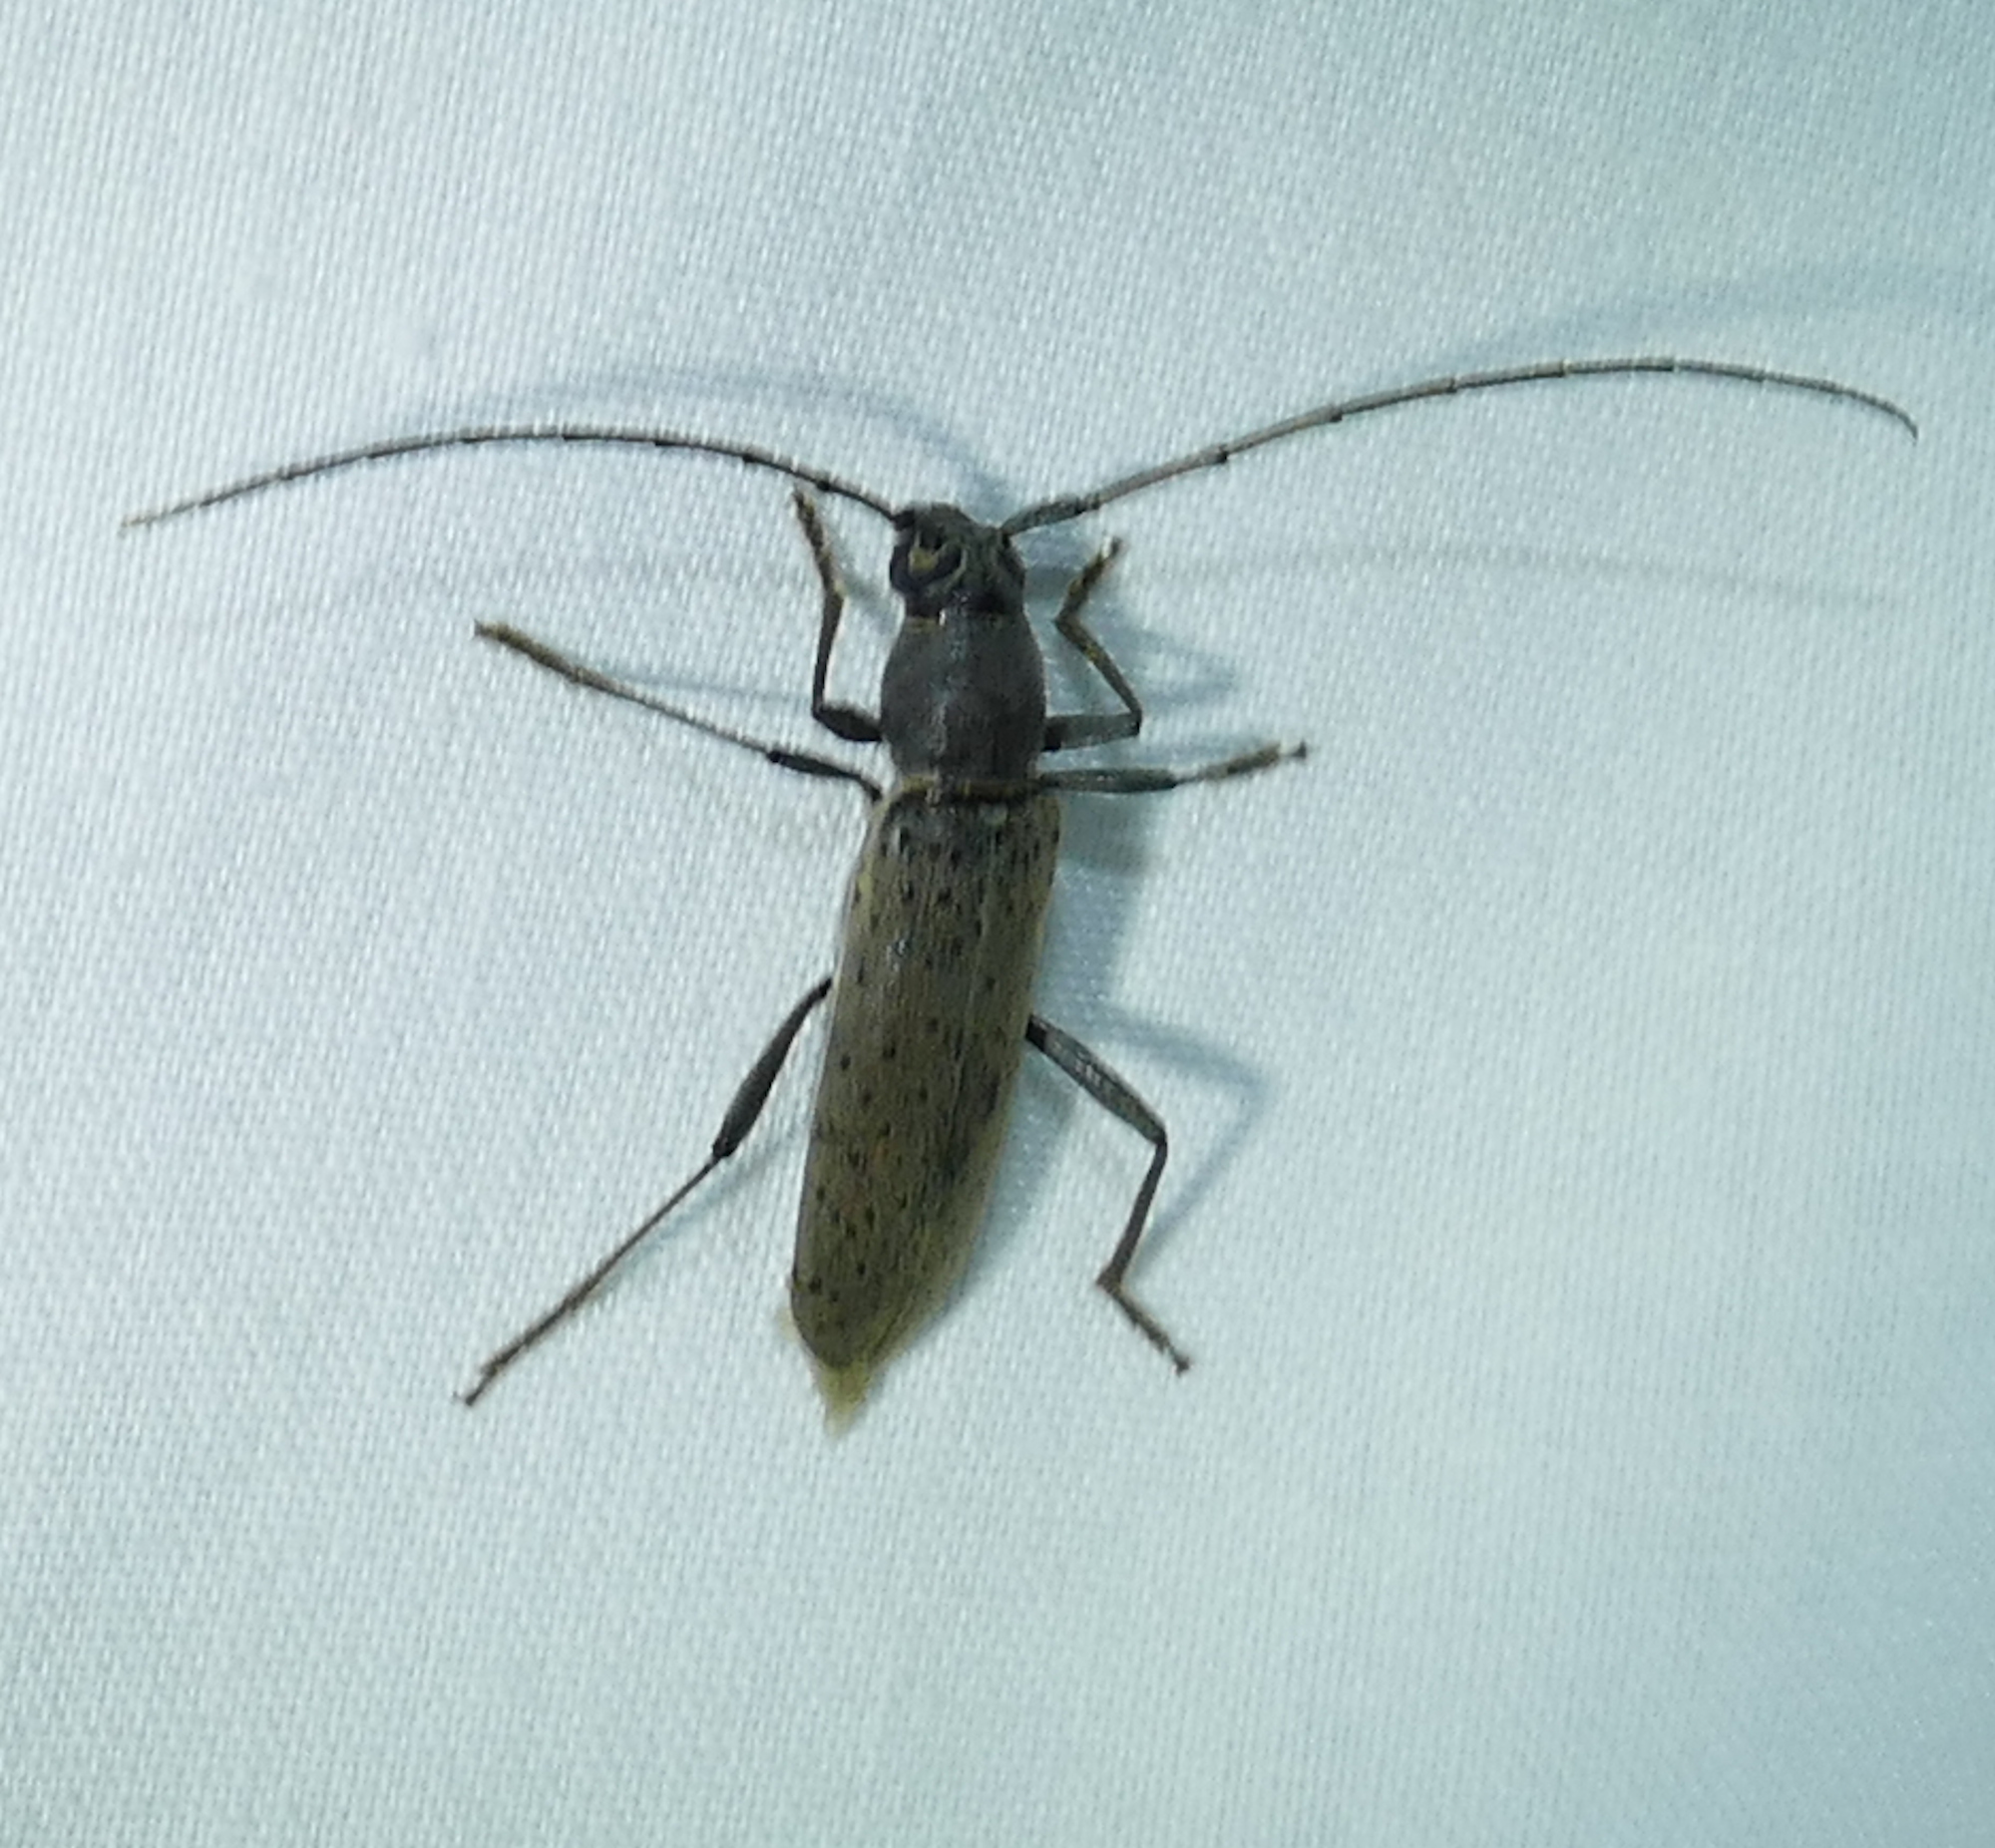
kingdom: Animalia
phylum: Arthropoda
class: Insecta
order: Coleoptera
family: Cerambycidae
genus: Osmidus
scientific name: Osmidus guttatus
